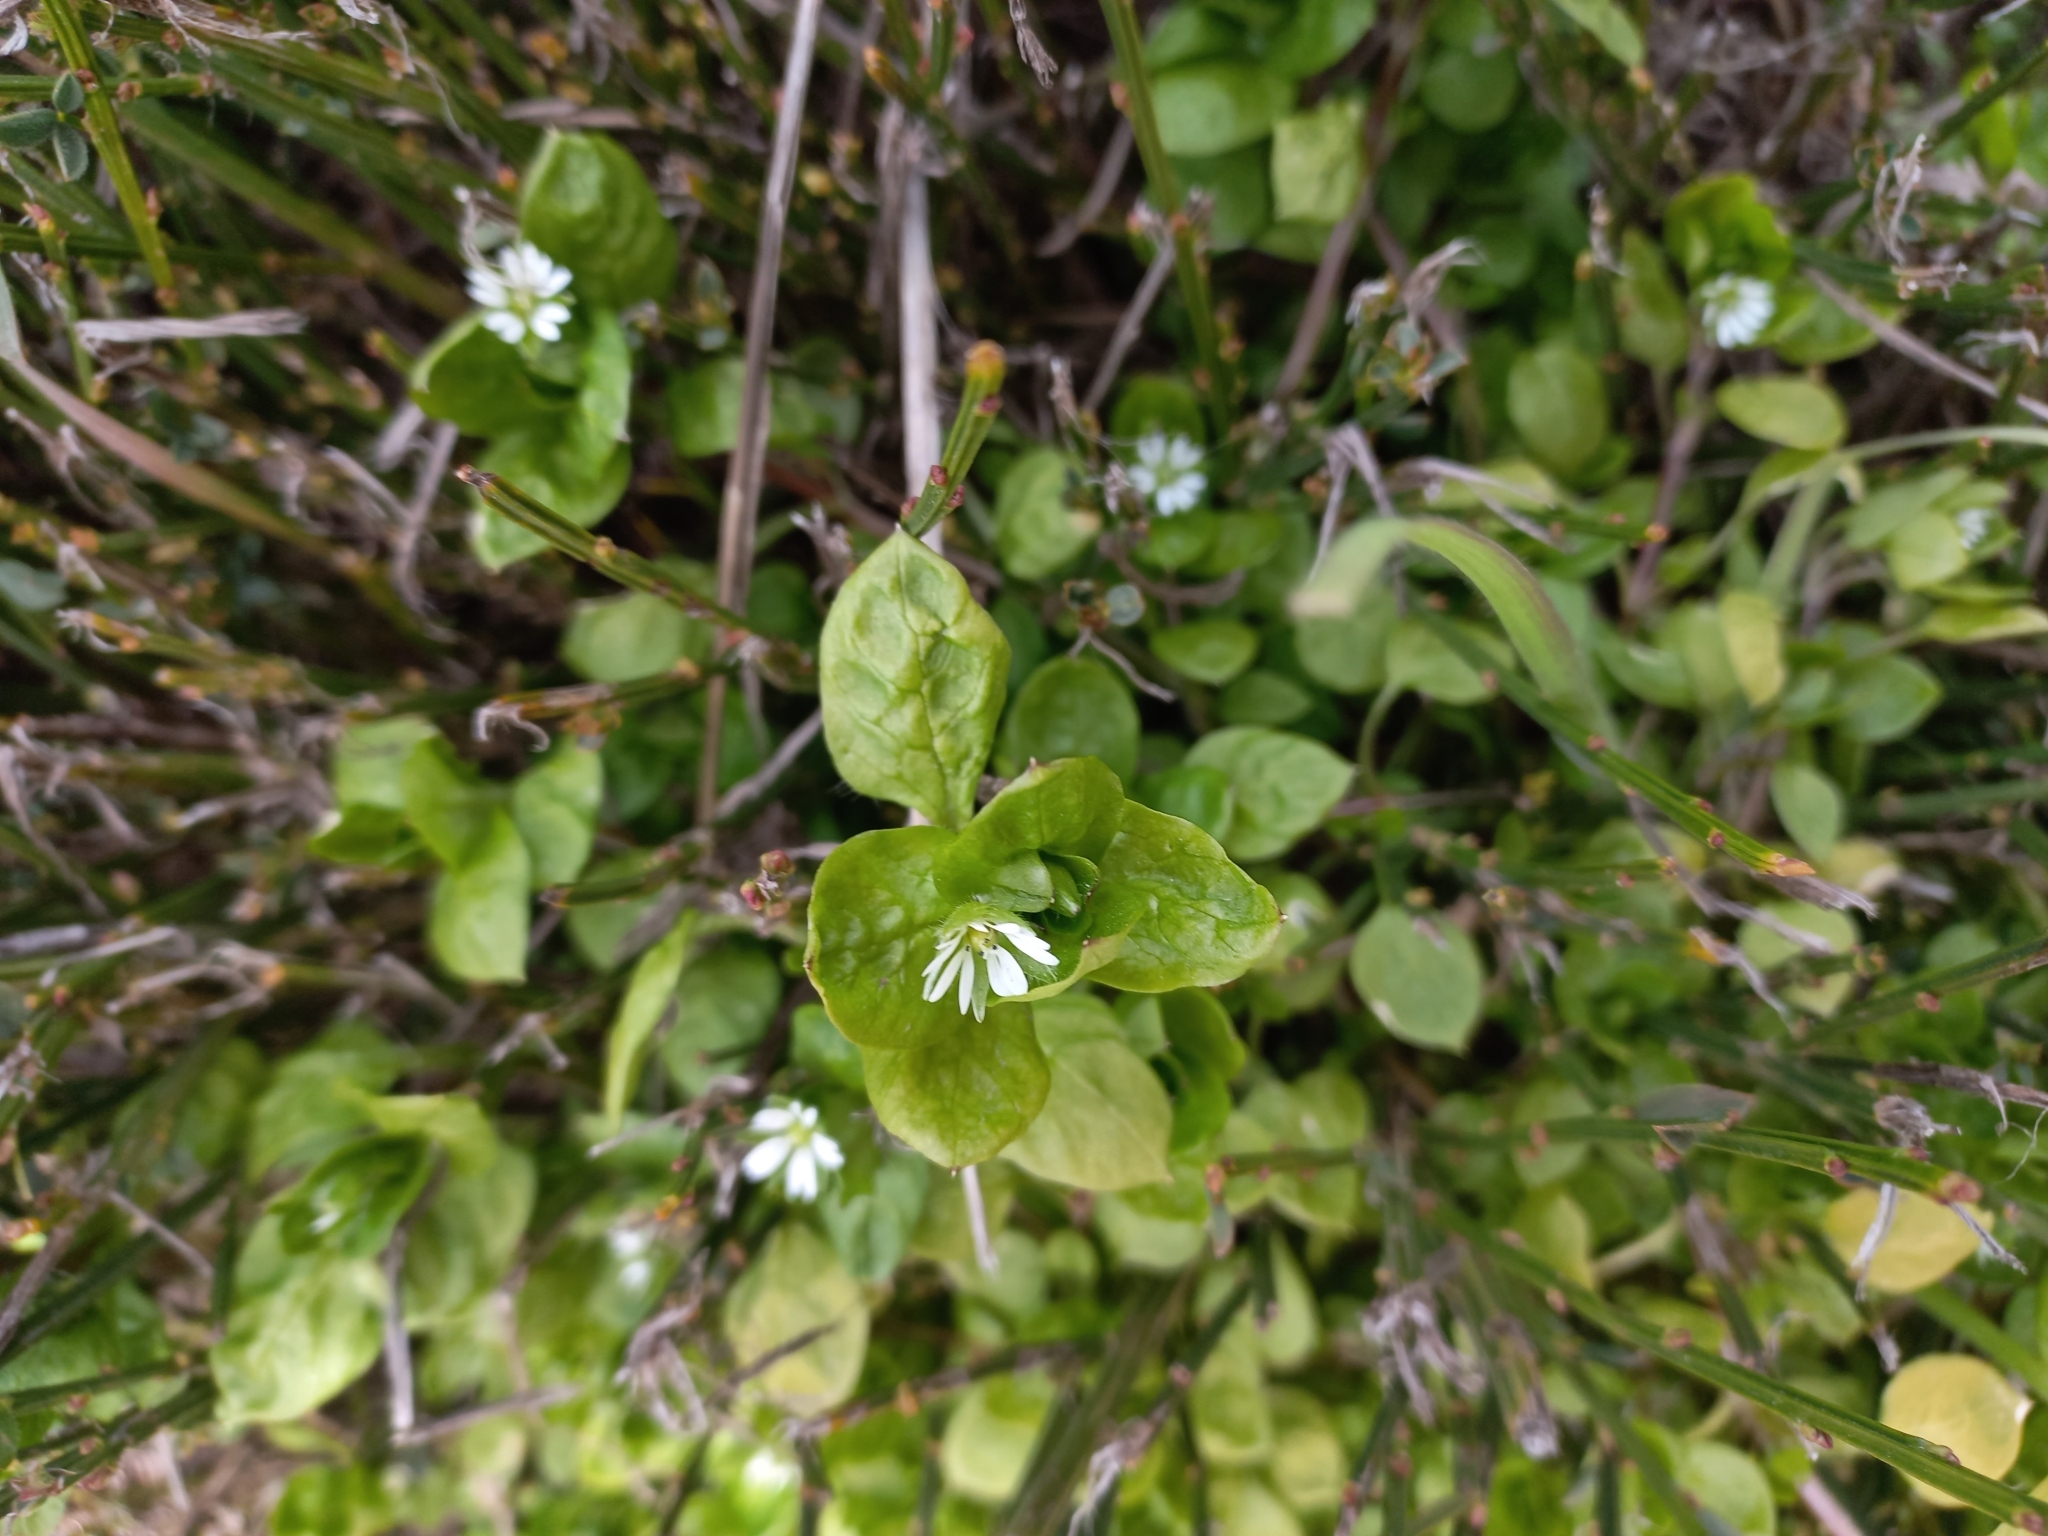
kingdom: Plantae
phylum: Tracheophyta
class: Magnoliopsida
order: Caryophyllales
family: Caryophyllaceae
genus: Stellaria
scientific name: Stellaria media
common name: Common chickweed
